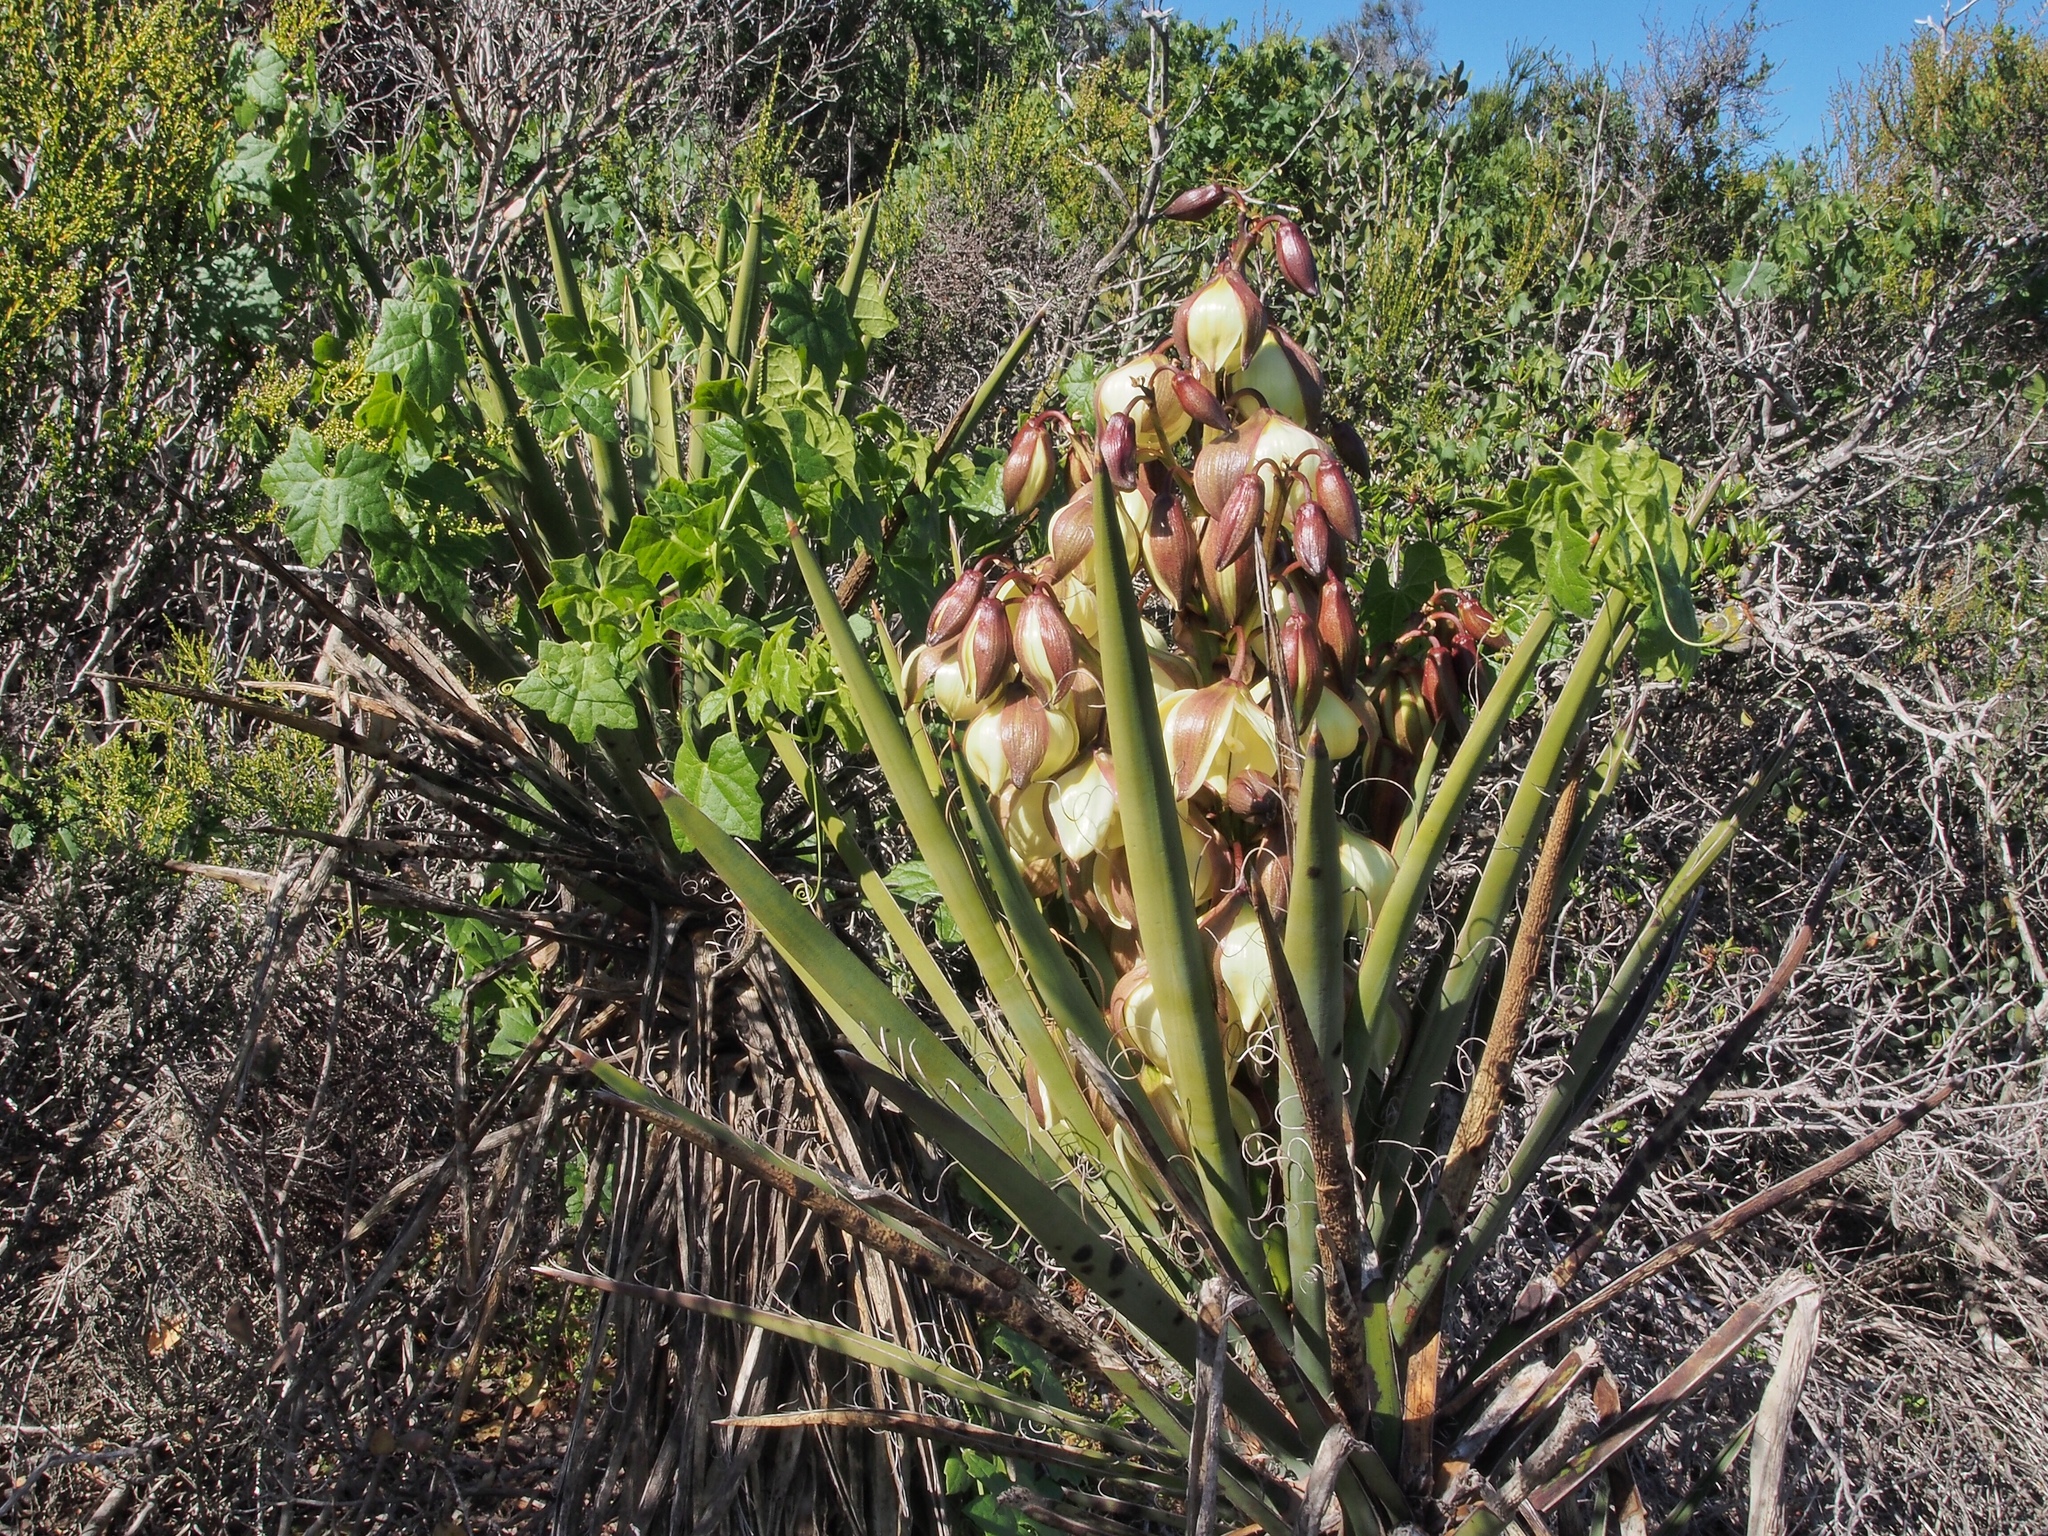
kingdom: Plantae
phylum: Tracheophyta
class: Liliopsida
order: Asparagales
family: Asparagaceae
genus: Yucca
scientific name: Yucca schidigera
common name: Mojave yucca
